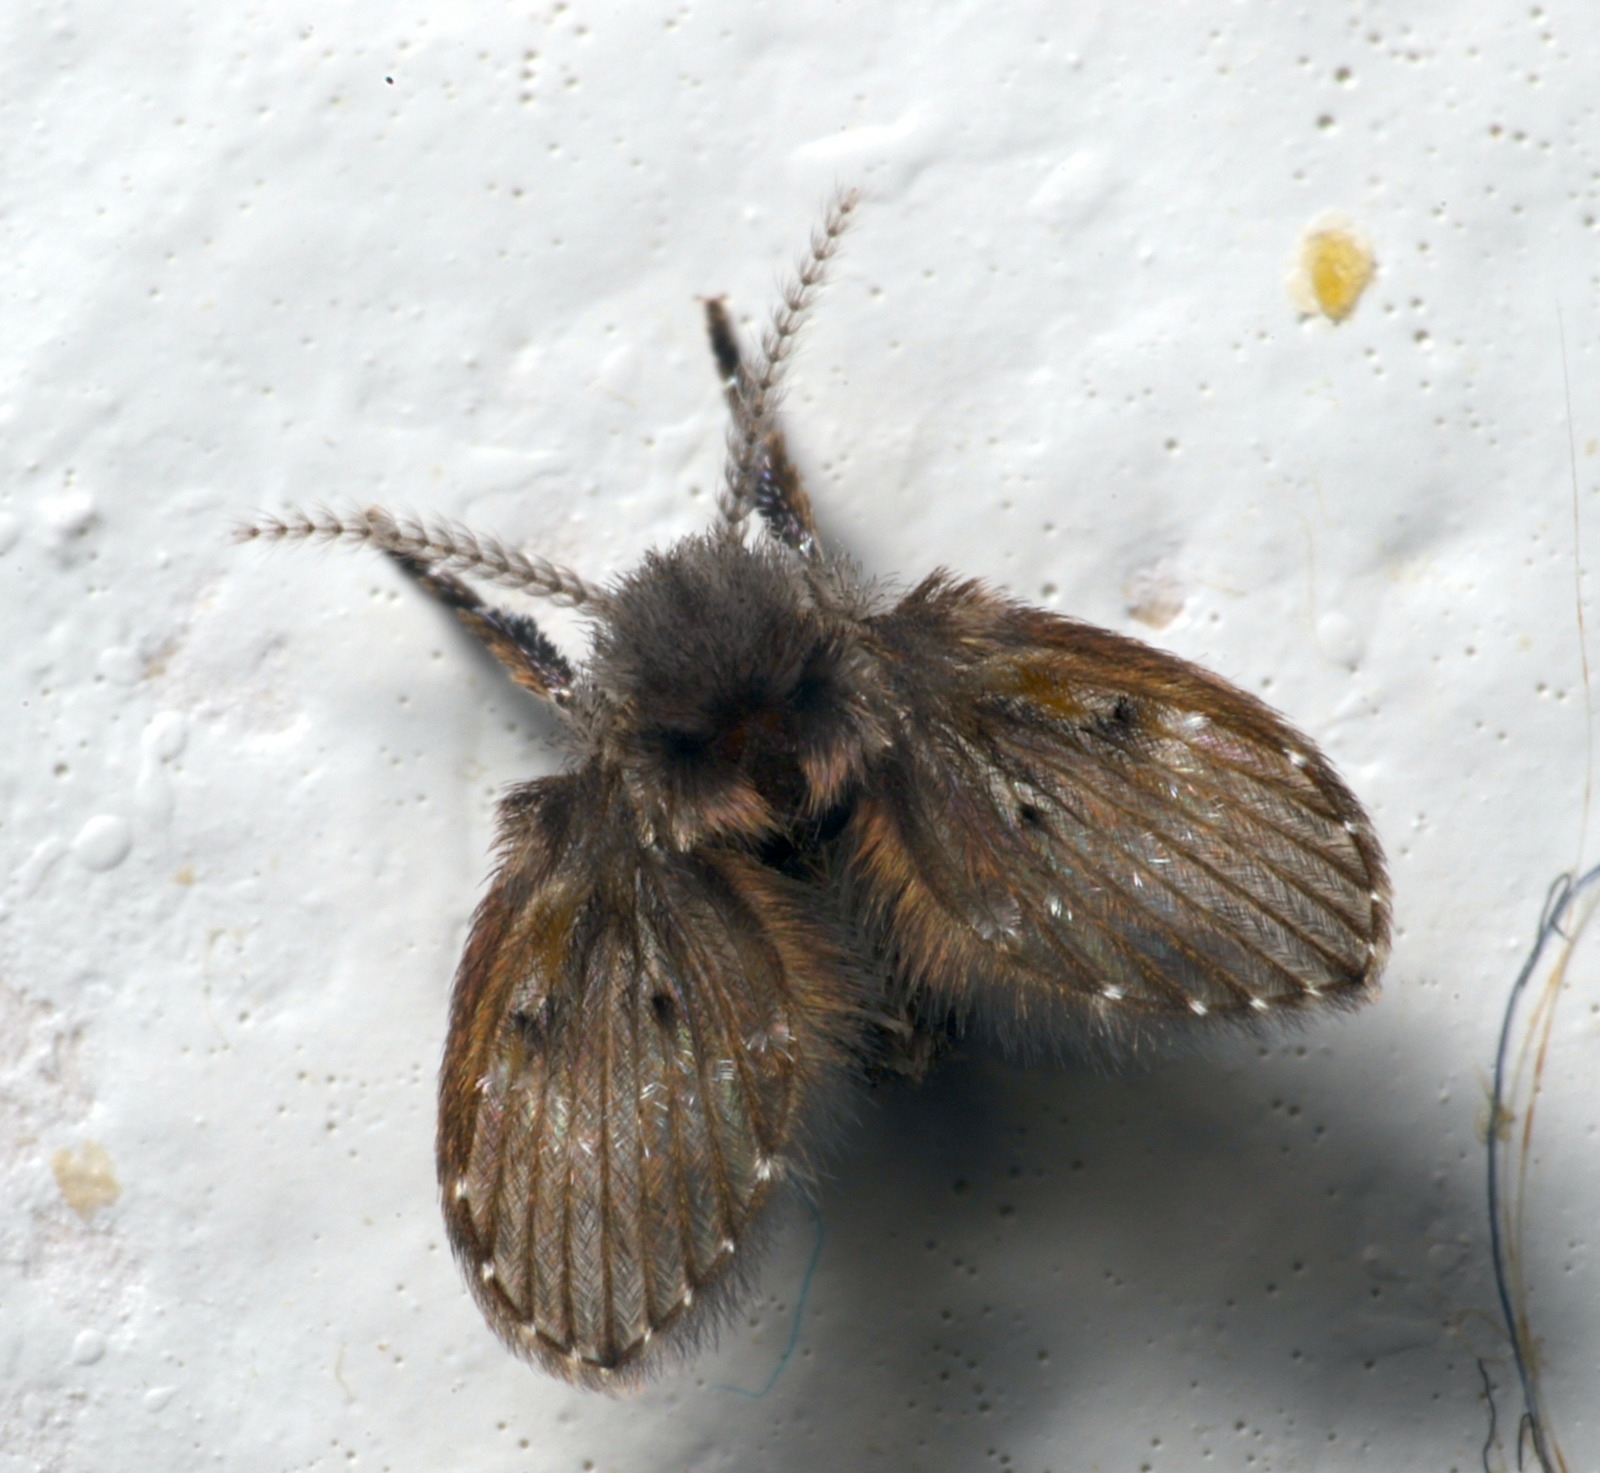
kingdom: Animalia
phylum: Arthropoda
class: Insecta
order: Diptera
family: Psychodidae
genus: Clogmia
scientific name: Clogmia albipunctatus
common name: White-spotted moth fly
